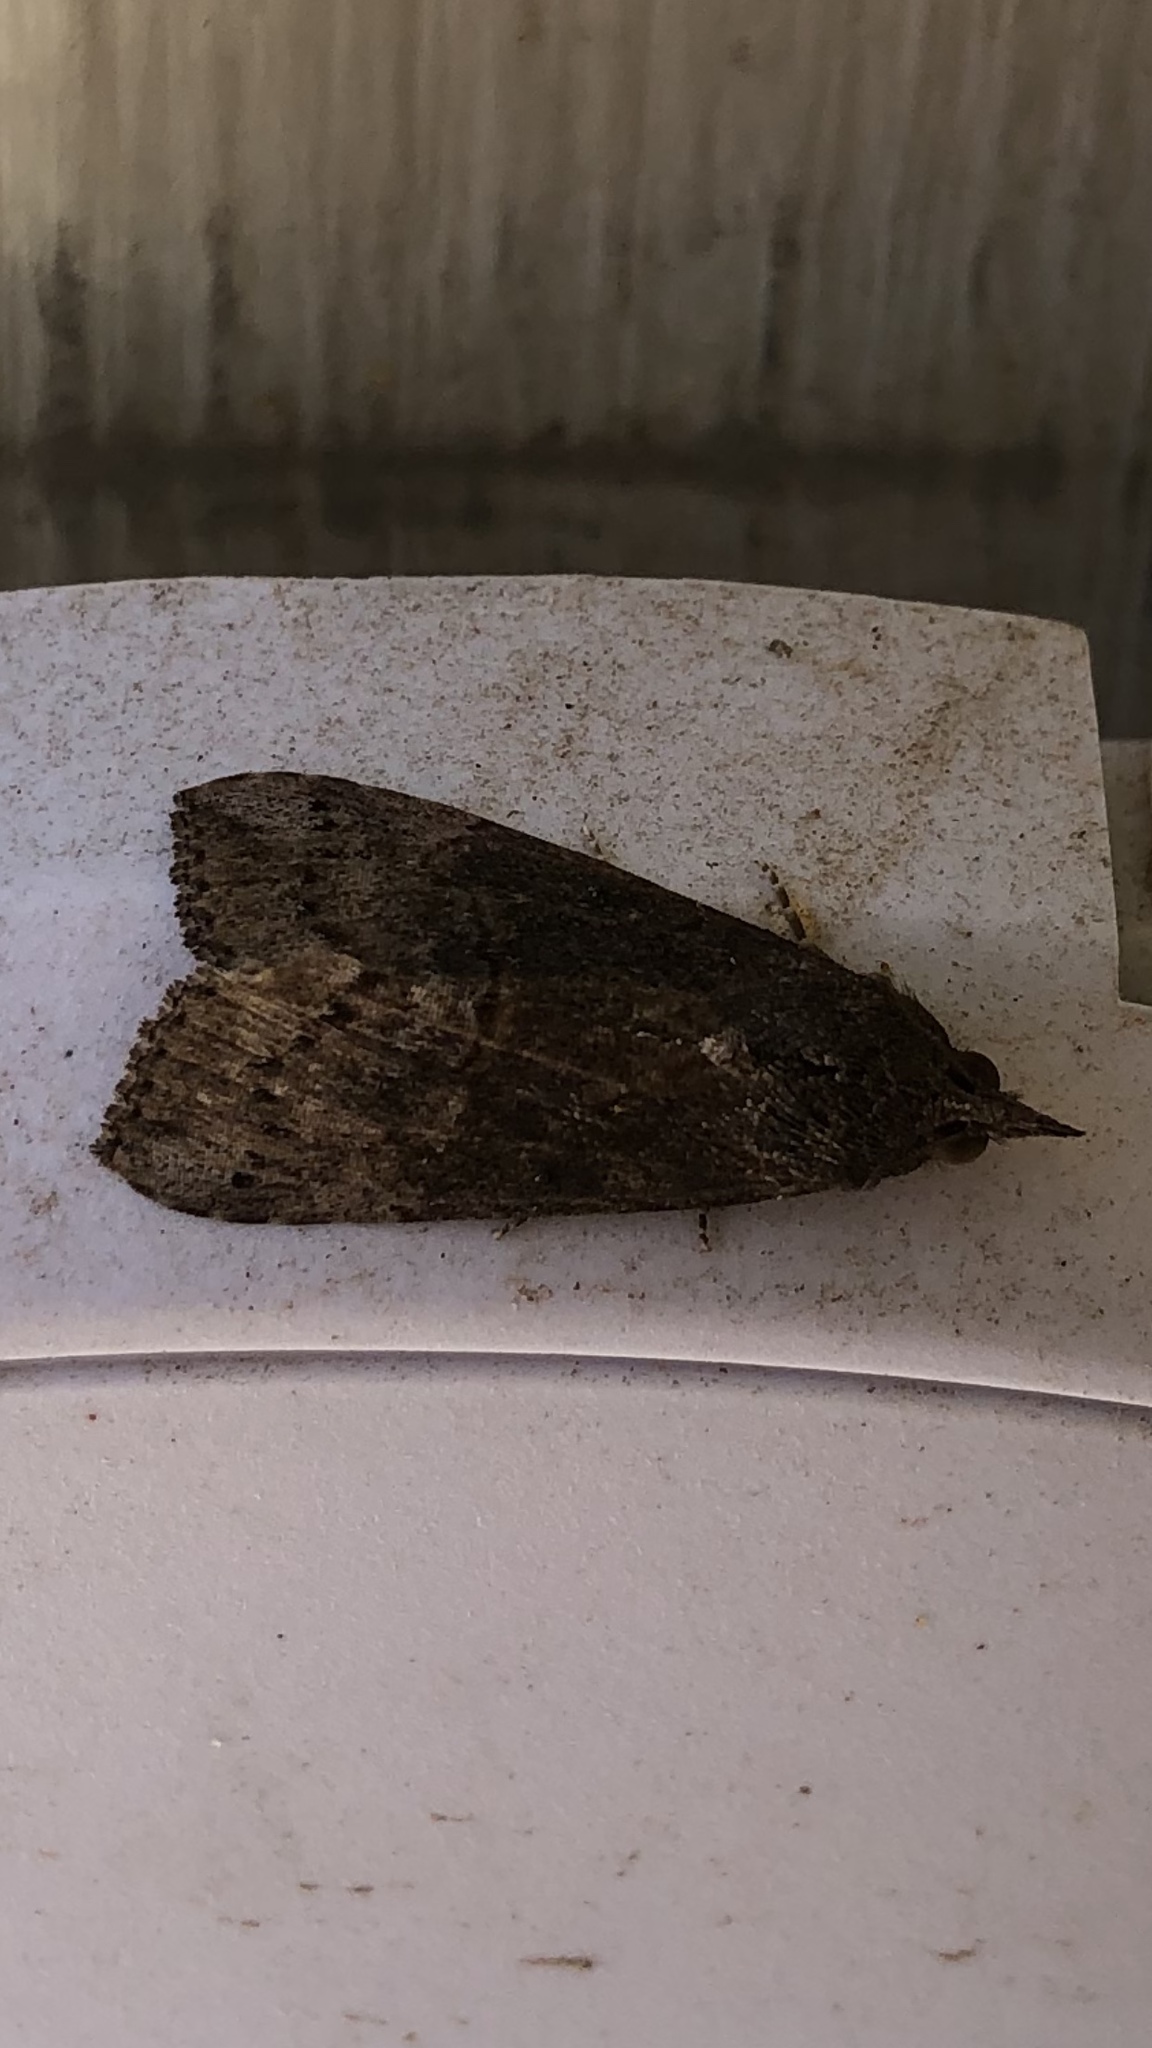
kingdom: Animalia
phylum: Arthropoda
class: Insecta
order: Lepidoptera
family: Erebidae
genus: Hypena
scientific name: Hypena scabra
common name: Green cloverworm
